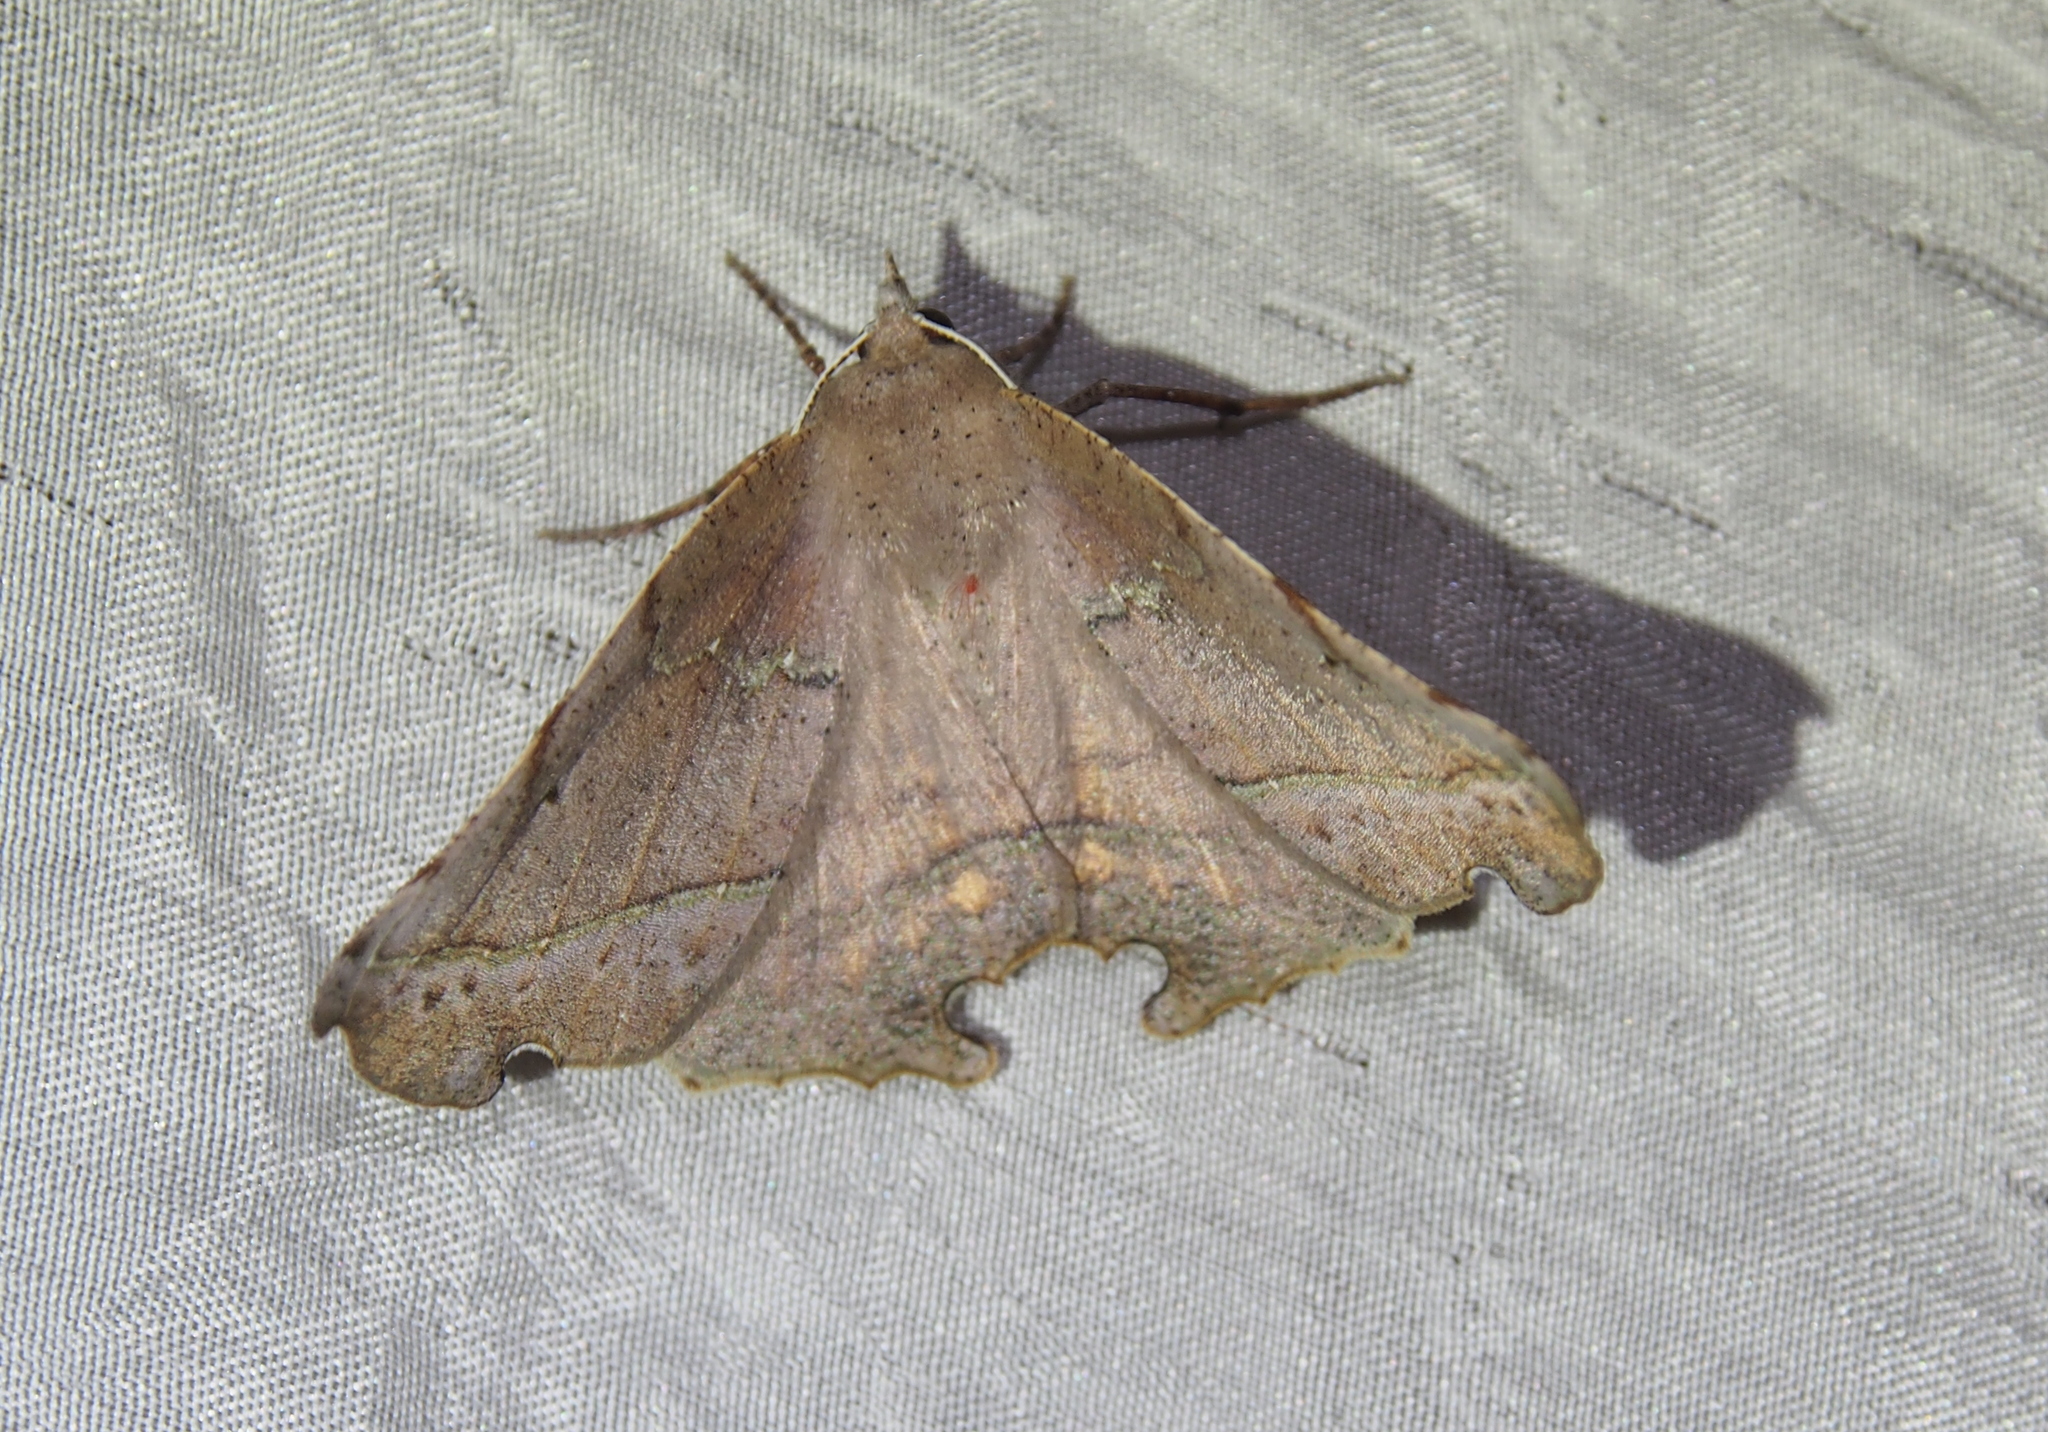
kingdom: Animalia
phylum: Arthropoda
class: Insecta
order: Lepidoptera
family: Geometridae
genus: Phyllodonta
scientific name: Phyllodonta flabellaria
